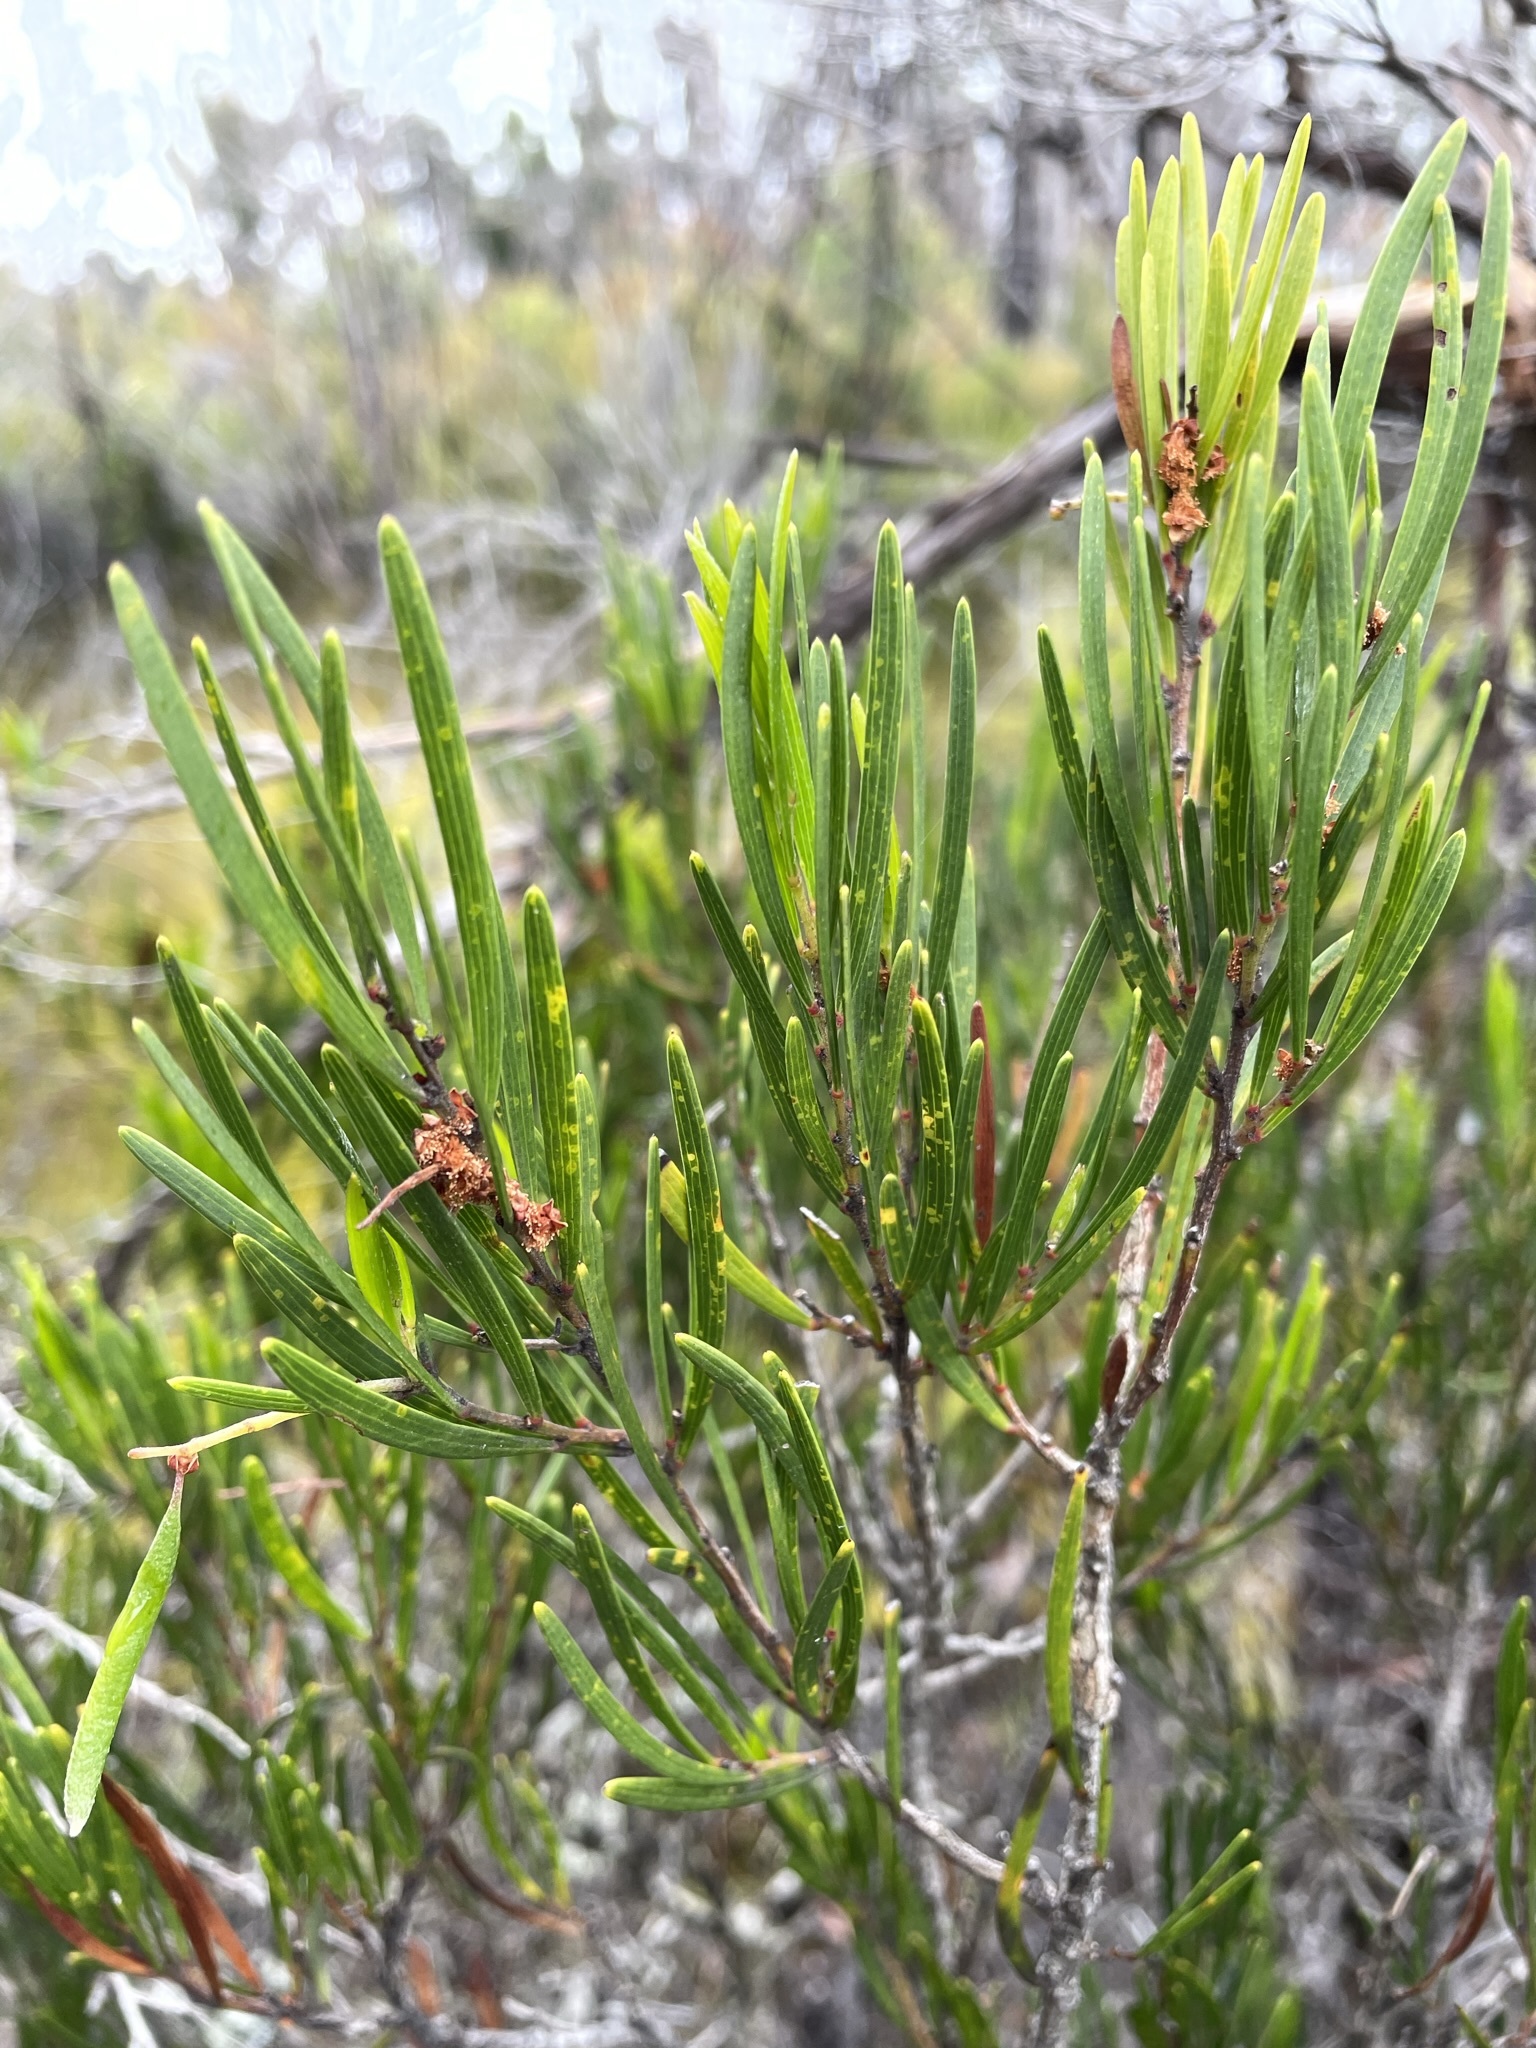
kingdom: Plantae
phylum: Tracheophyta
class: Magnoliopsida
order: Fabales
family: Fabaceae
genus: Acacia
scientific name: Acacia mucronata
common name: Variable sallow wattle
